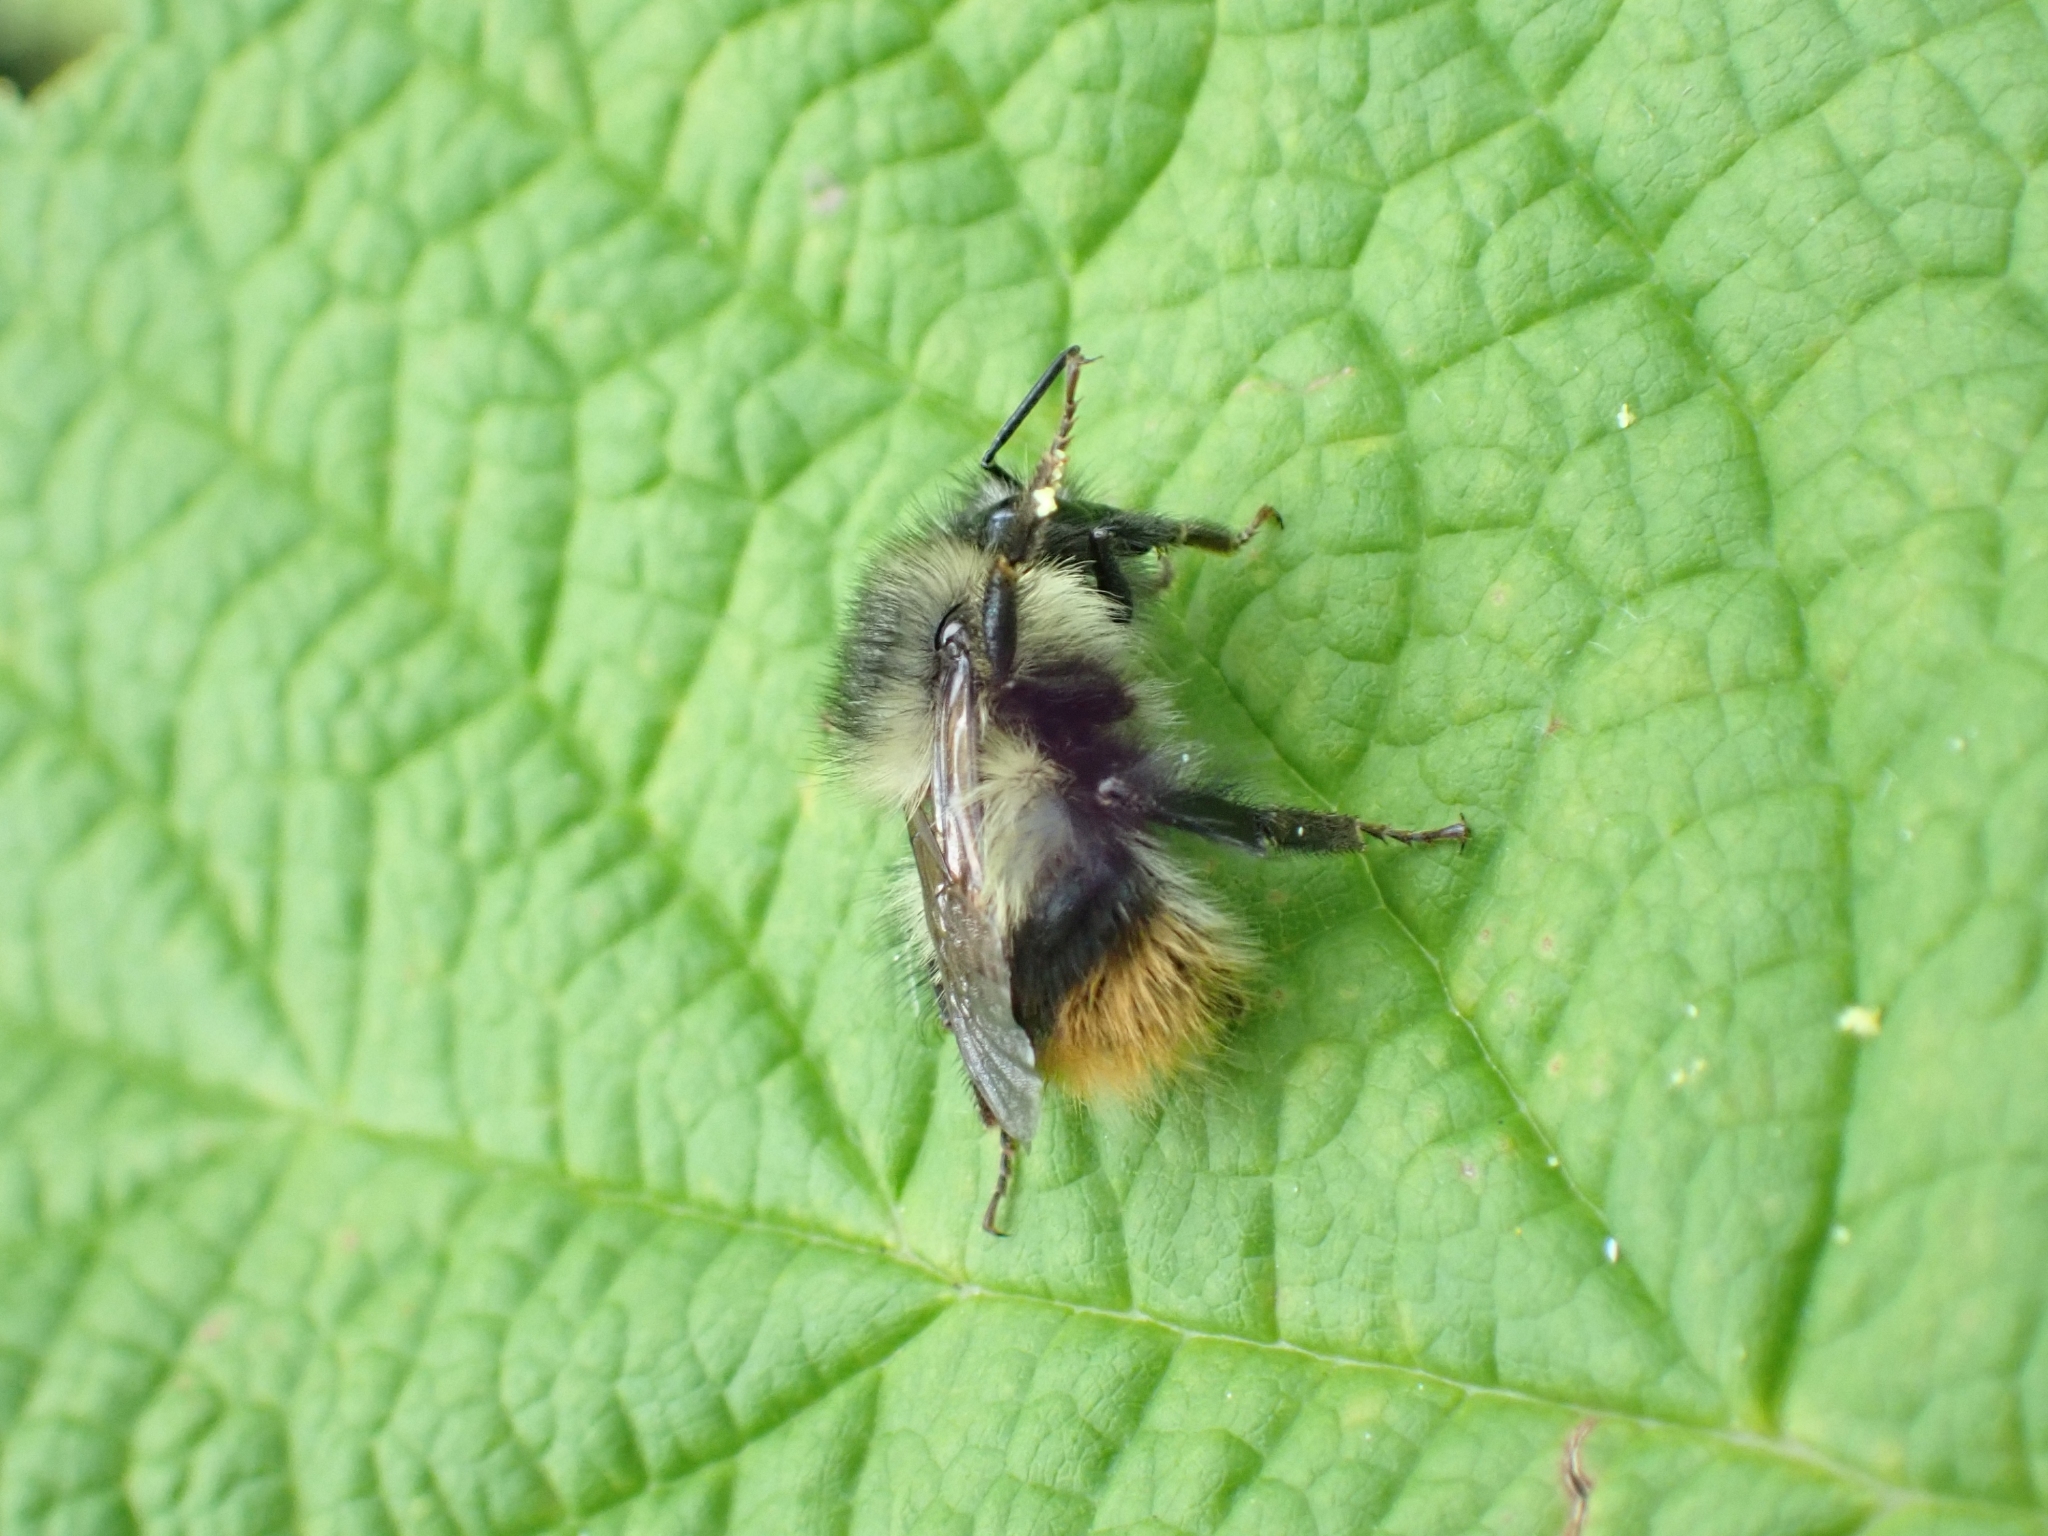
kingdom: Animalia
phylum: Arthropoda
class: Insecta
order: Hymenoptera
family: Apidae
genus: Bombus
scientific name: Bombus mixtus
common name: Fuzzy-horned bumble bee
